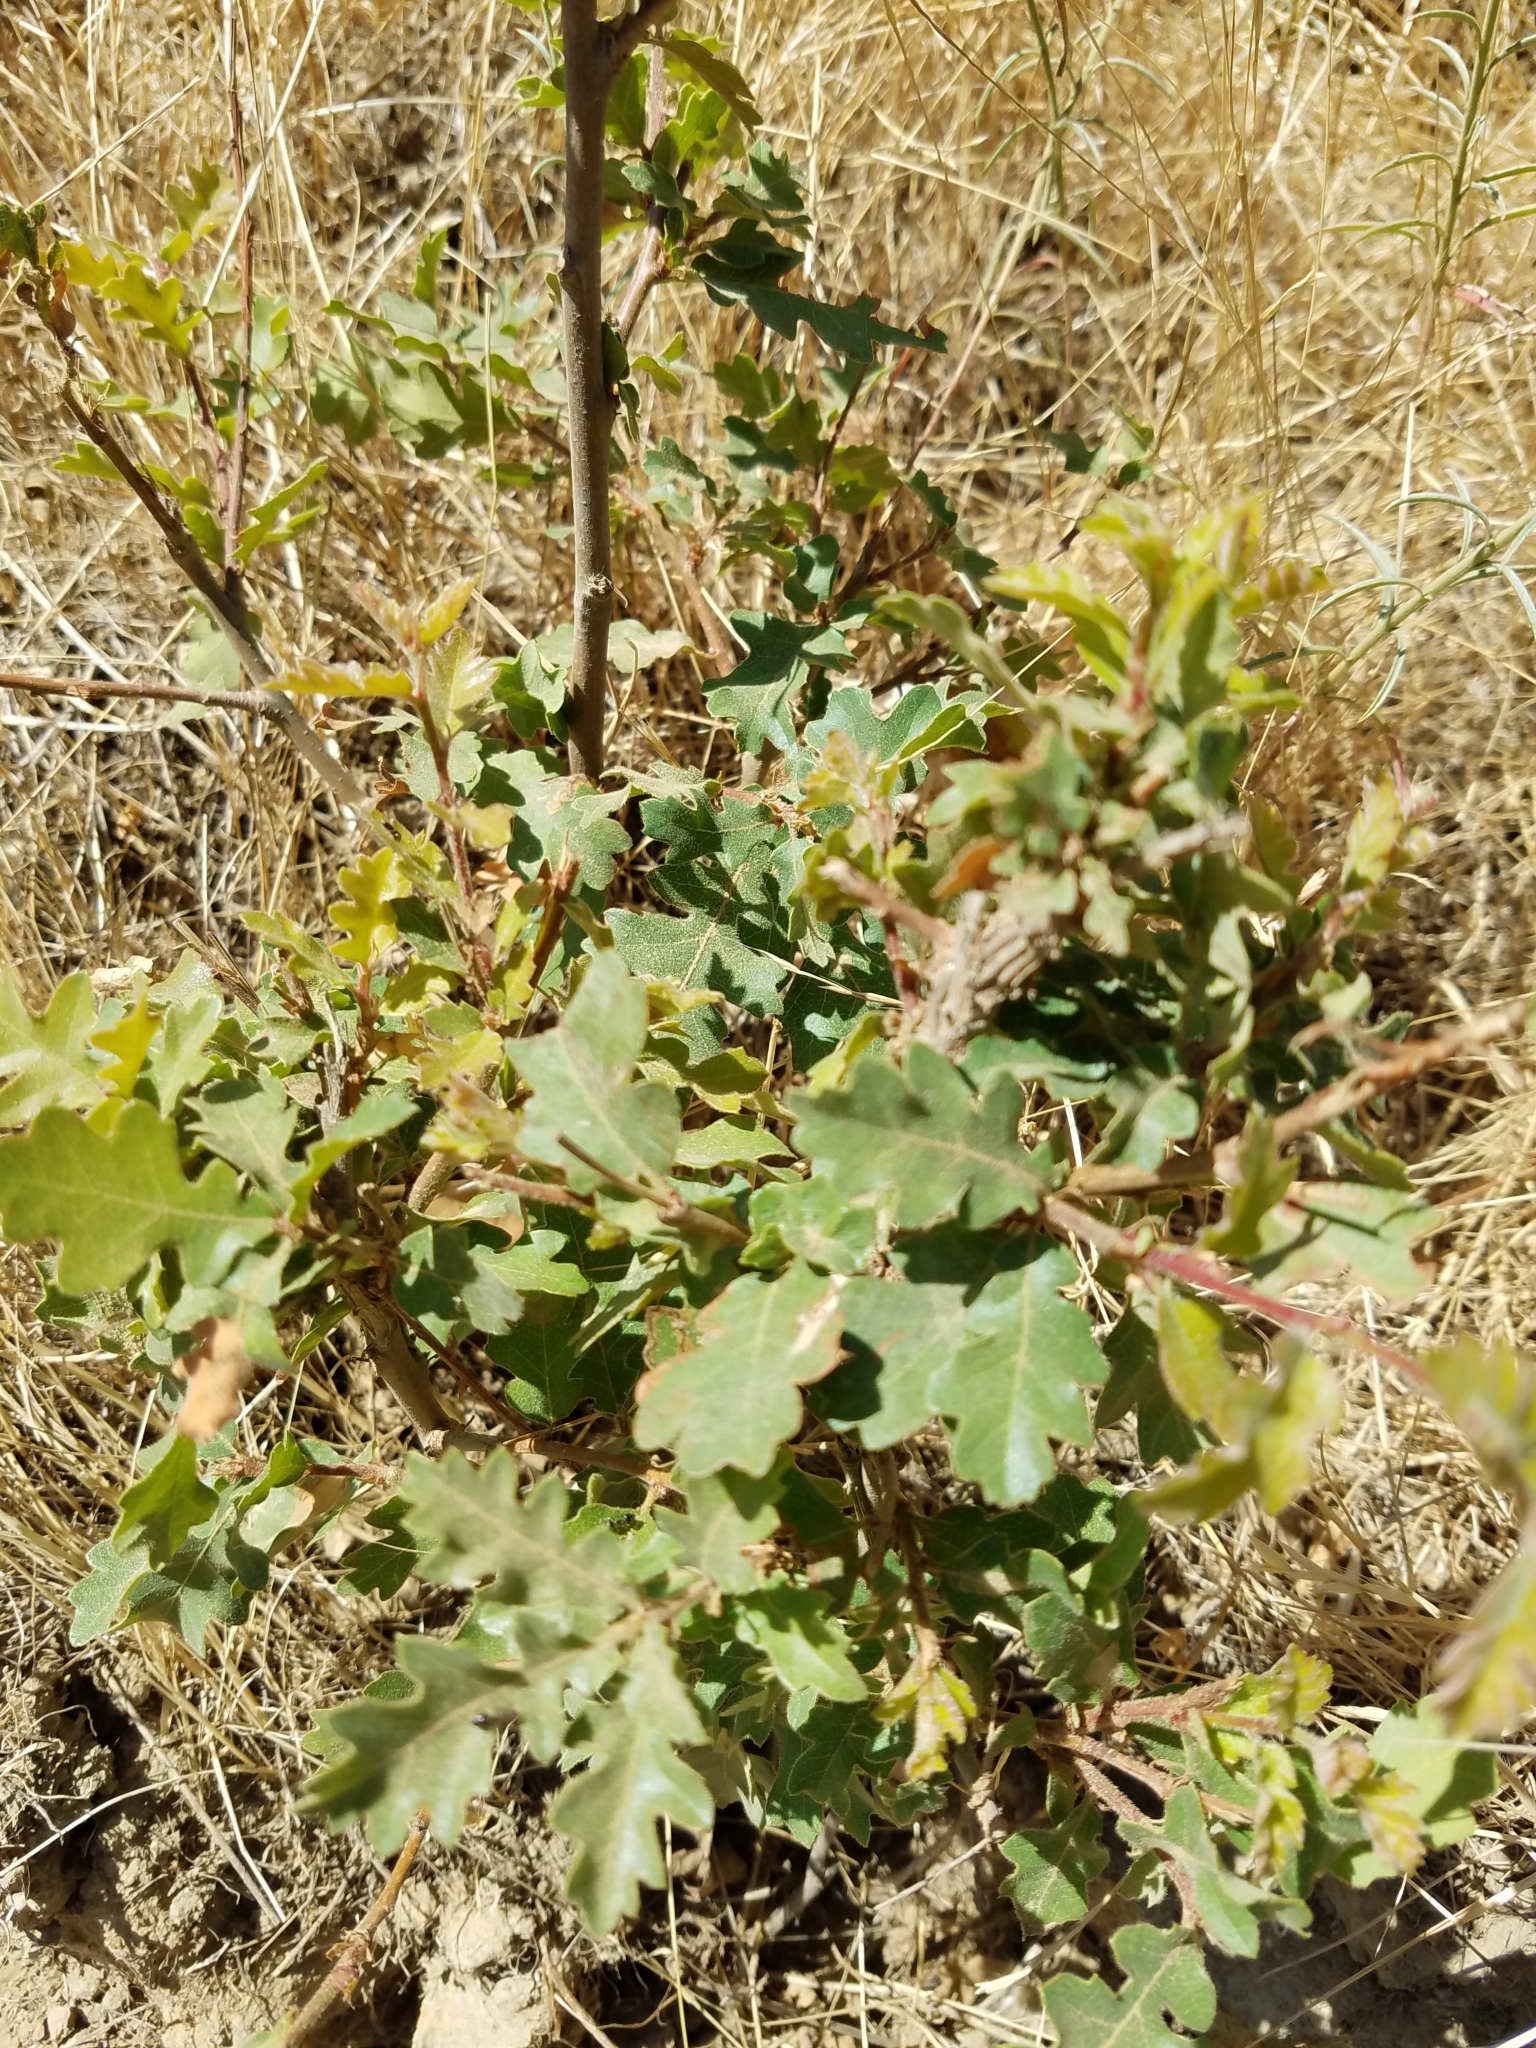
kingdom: Plantae
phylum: Tracheophyta
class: Magnoliopsida
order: Fagales
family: Fagaceae
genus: Quercus
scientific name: Quercus lobata
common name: Valley oak
